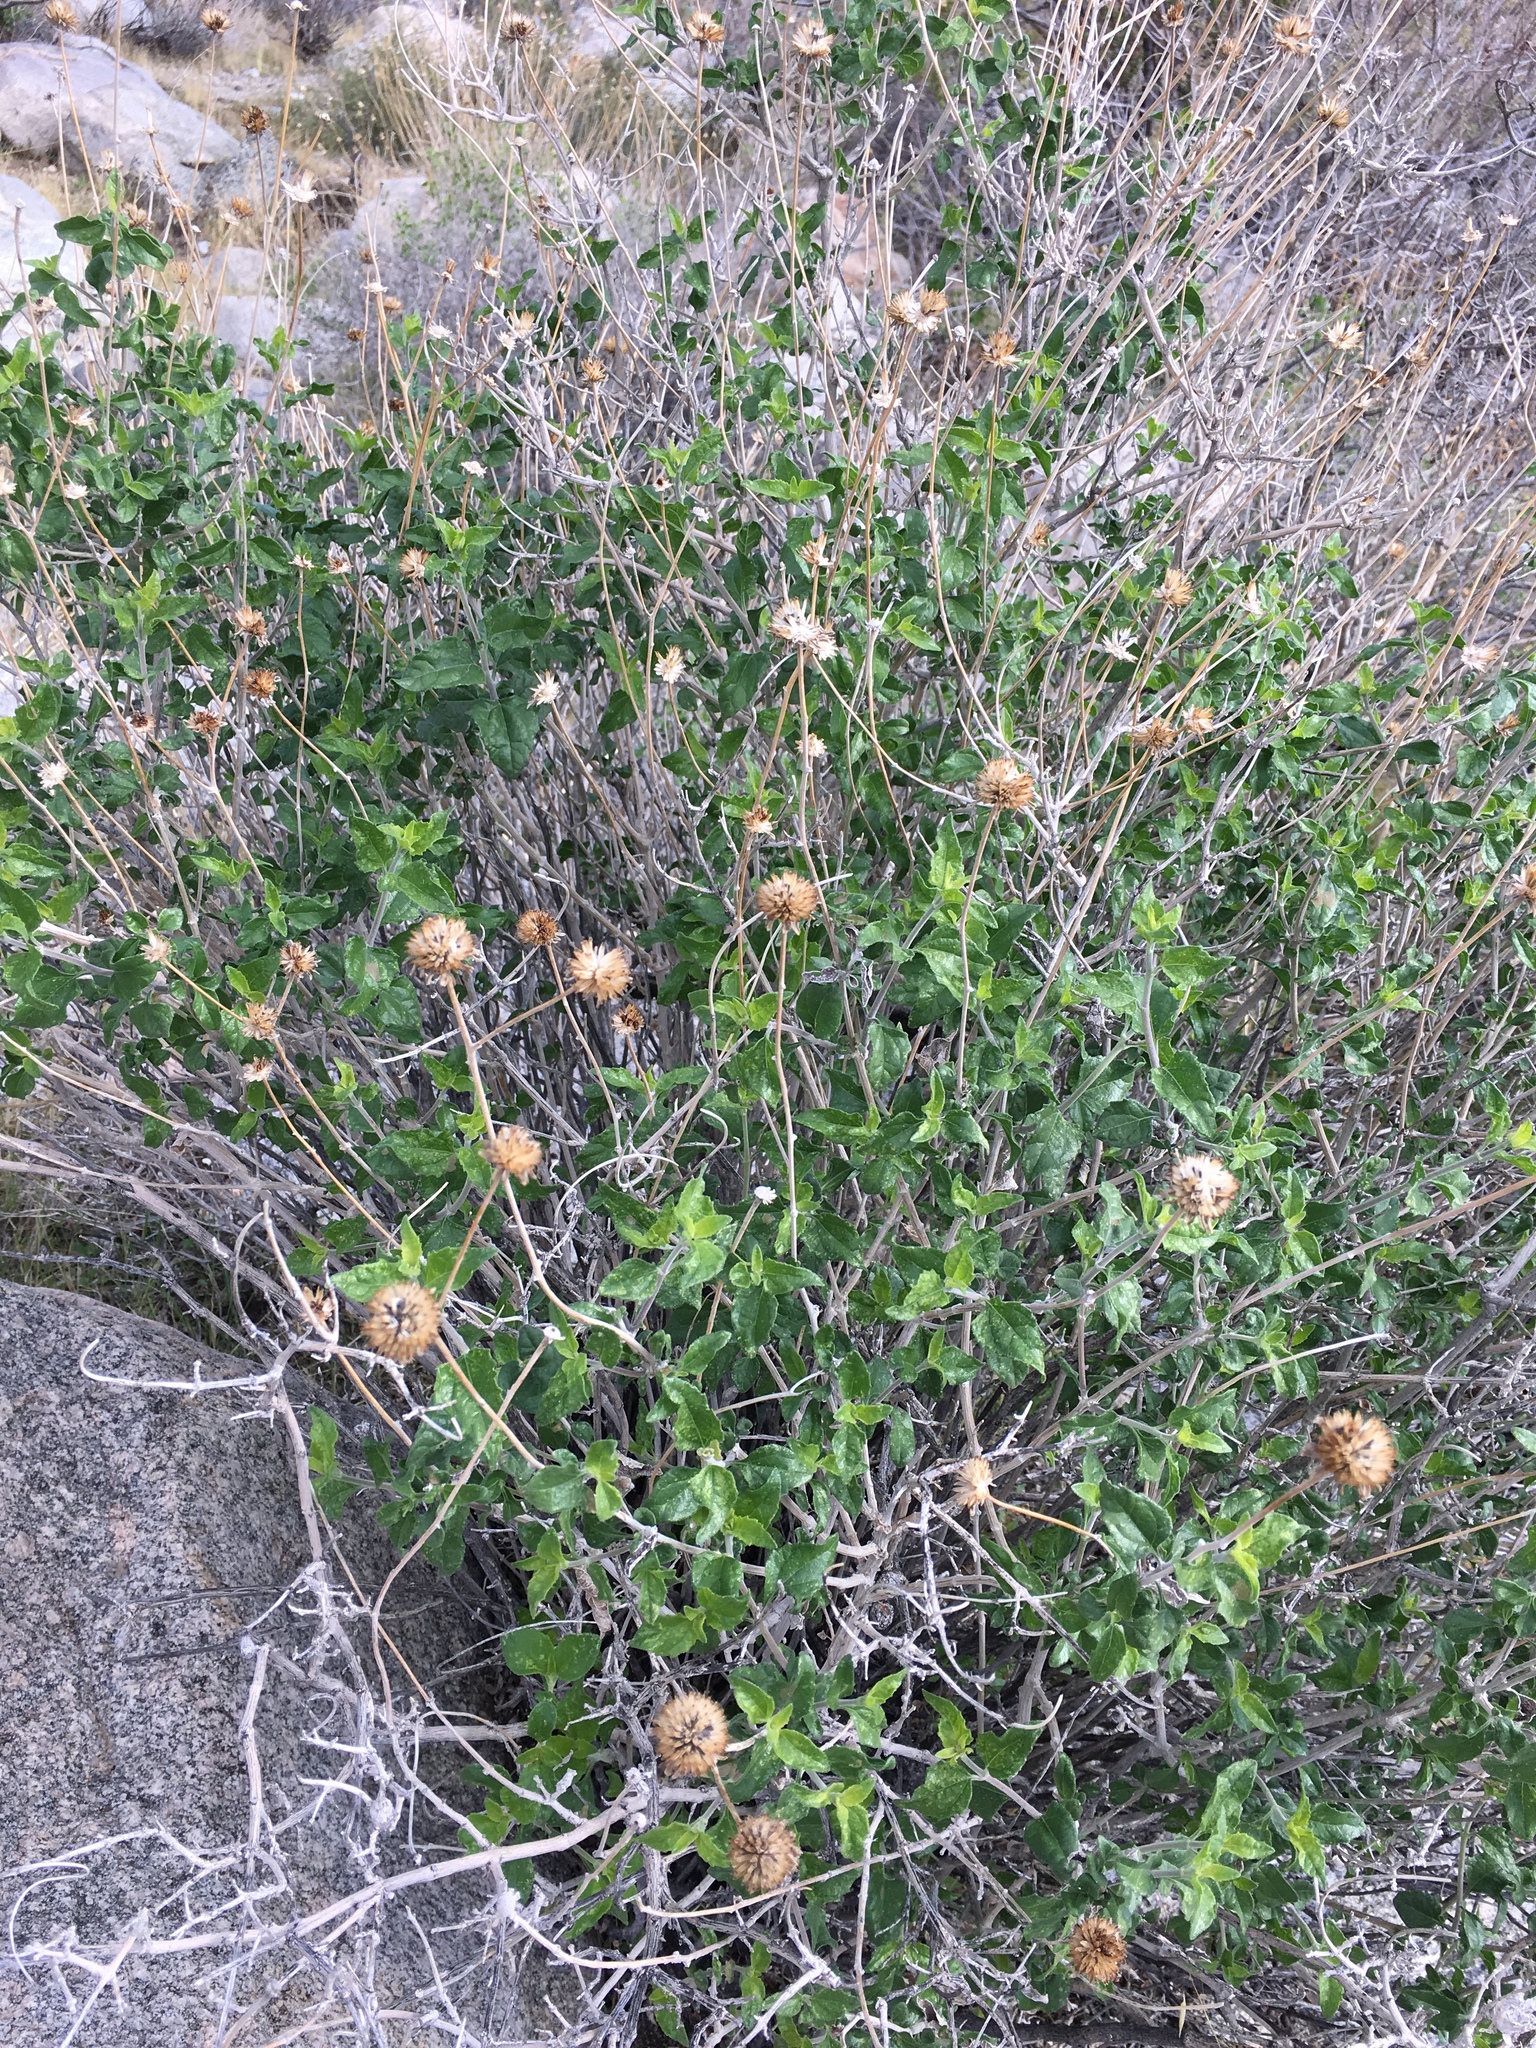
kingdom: Plantae
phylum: Tracheophyta
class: Magnoliopsida
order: Asterales
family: Asteraceae
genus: Bahiopsis
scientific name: Bahiopsis parishii
